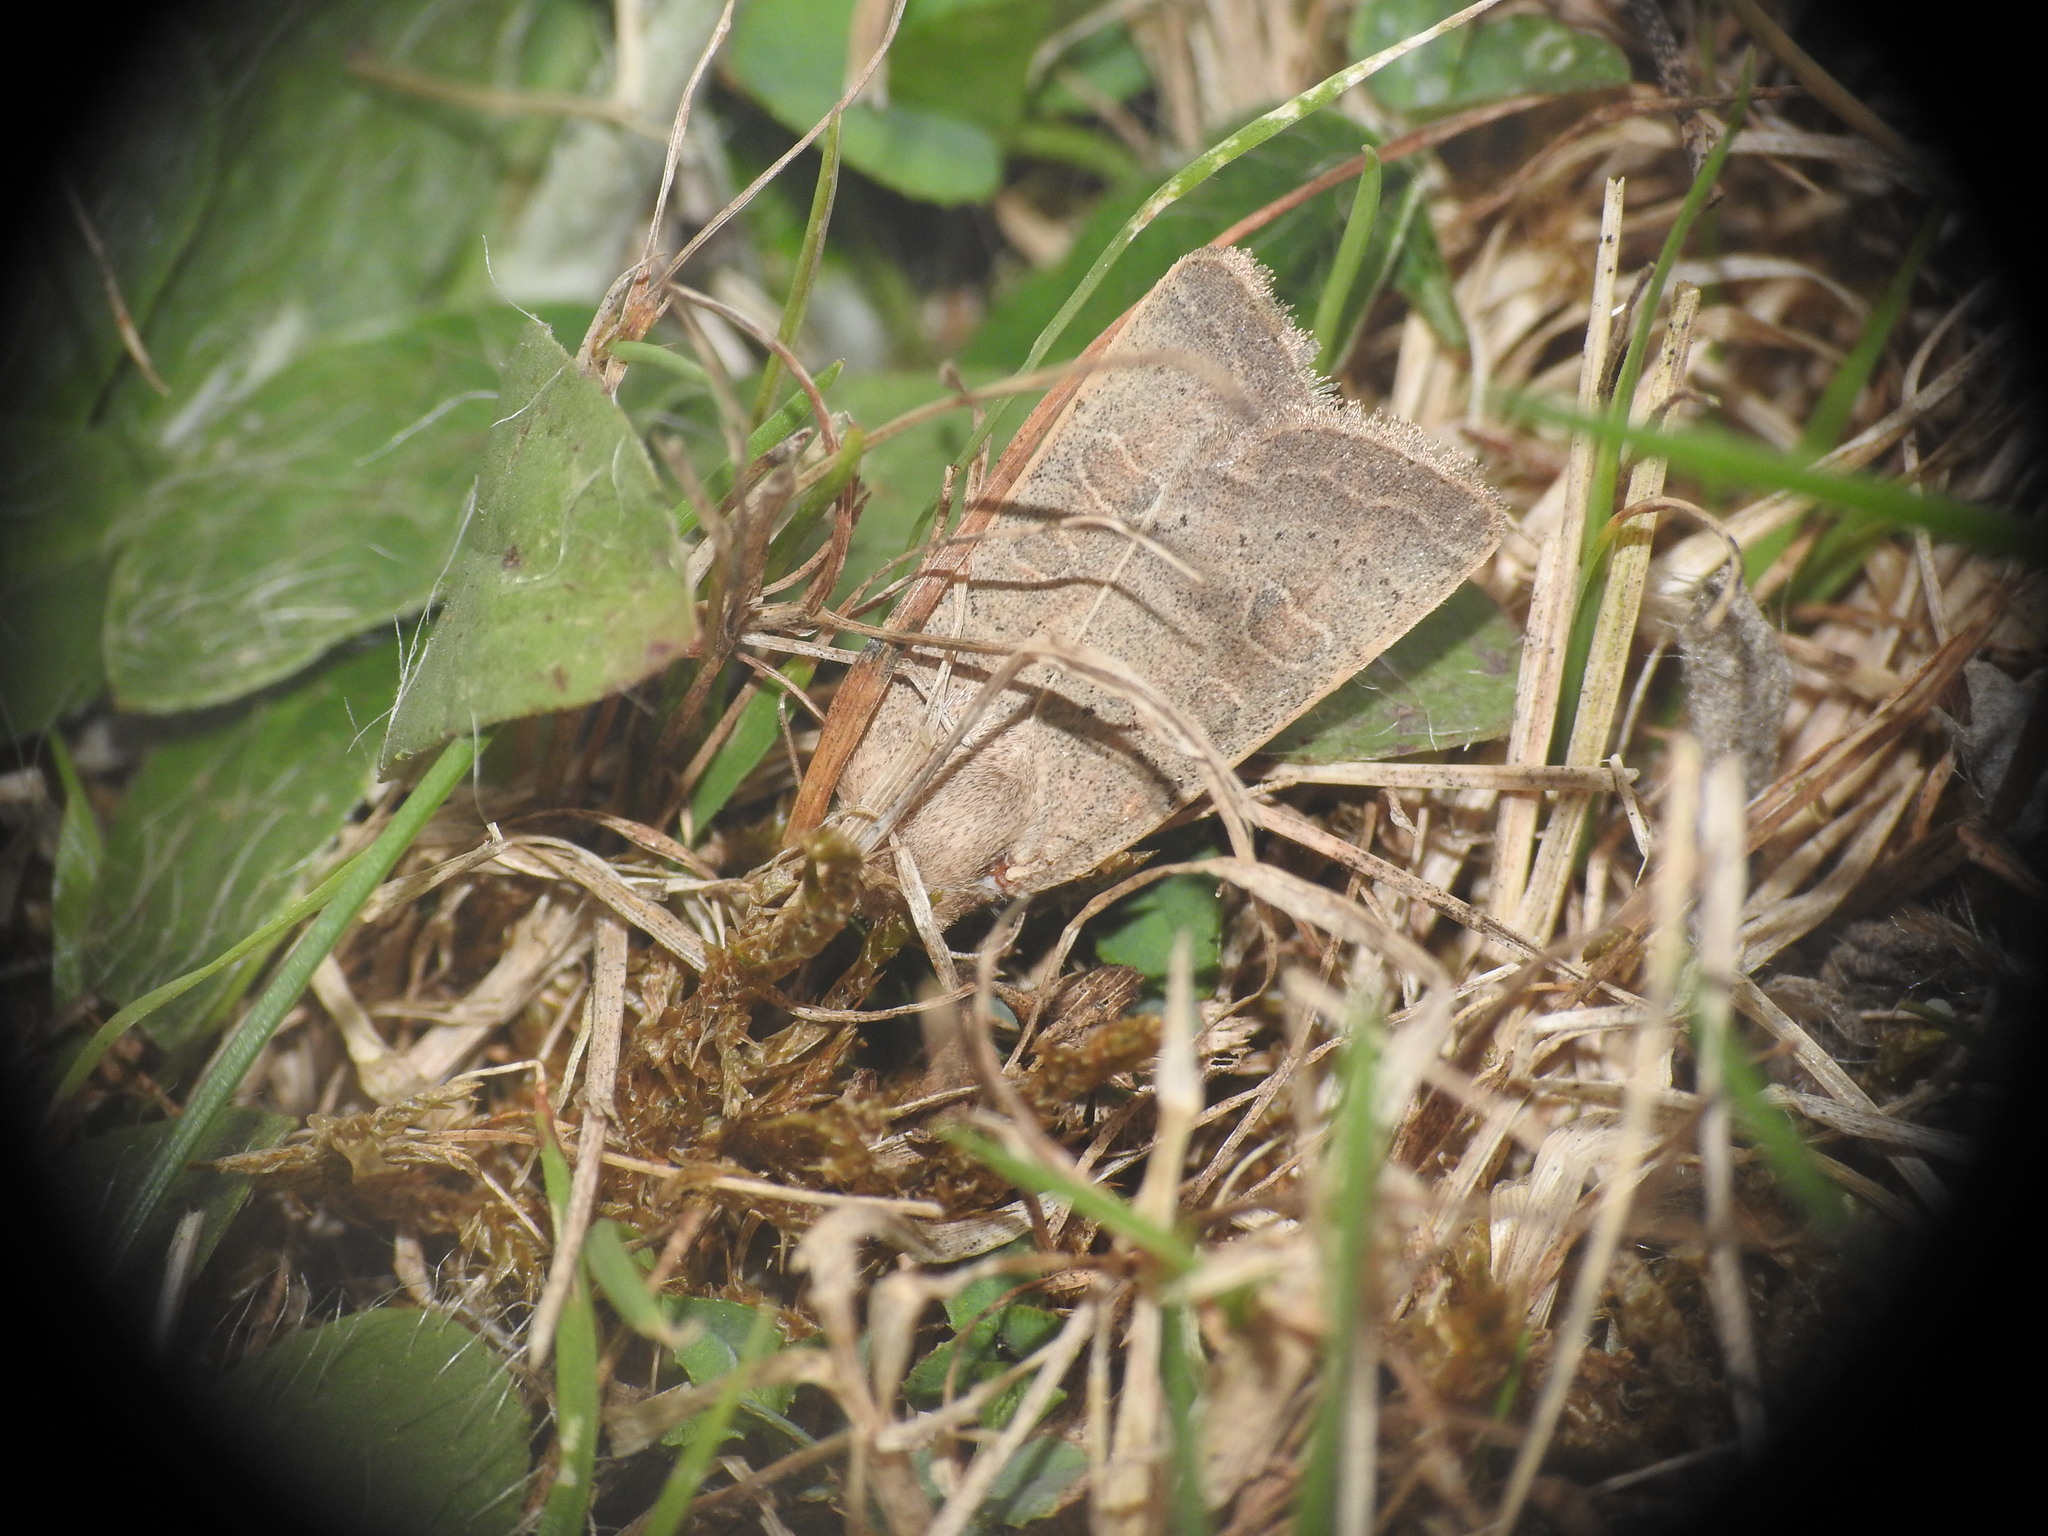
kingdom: Animalia
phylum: Arthropoda
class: Insecta
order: Lepidoptera
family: Noctuidae
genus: Hoplodrina
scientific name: Hoplodrina ambigua
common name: Vine's rustic
